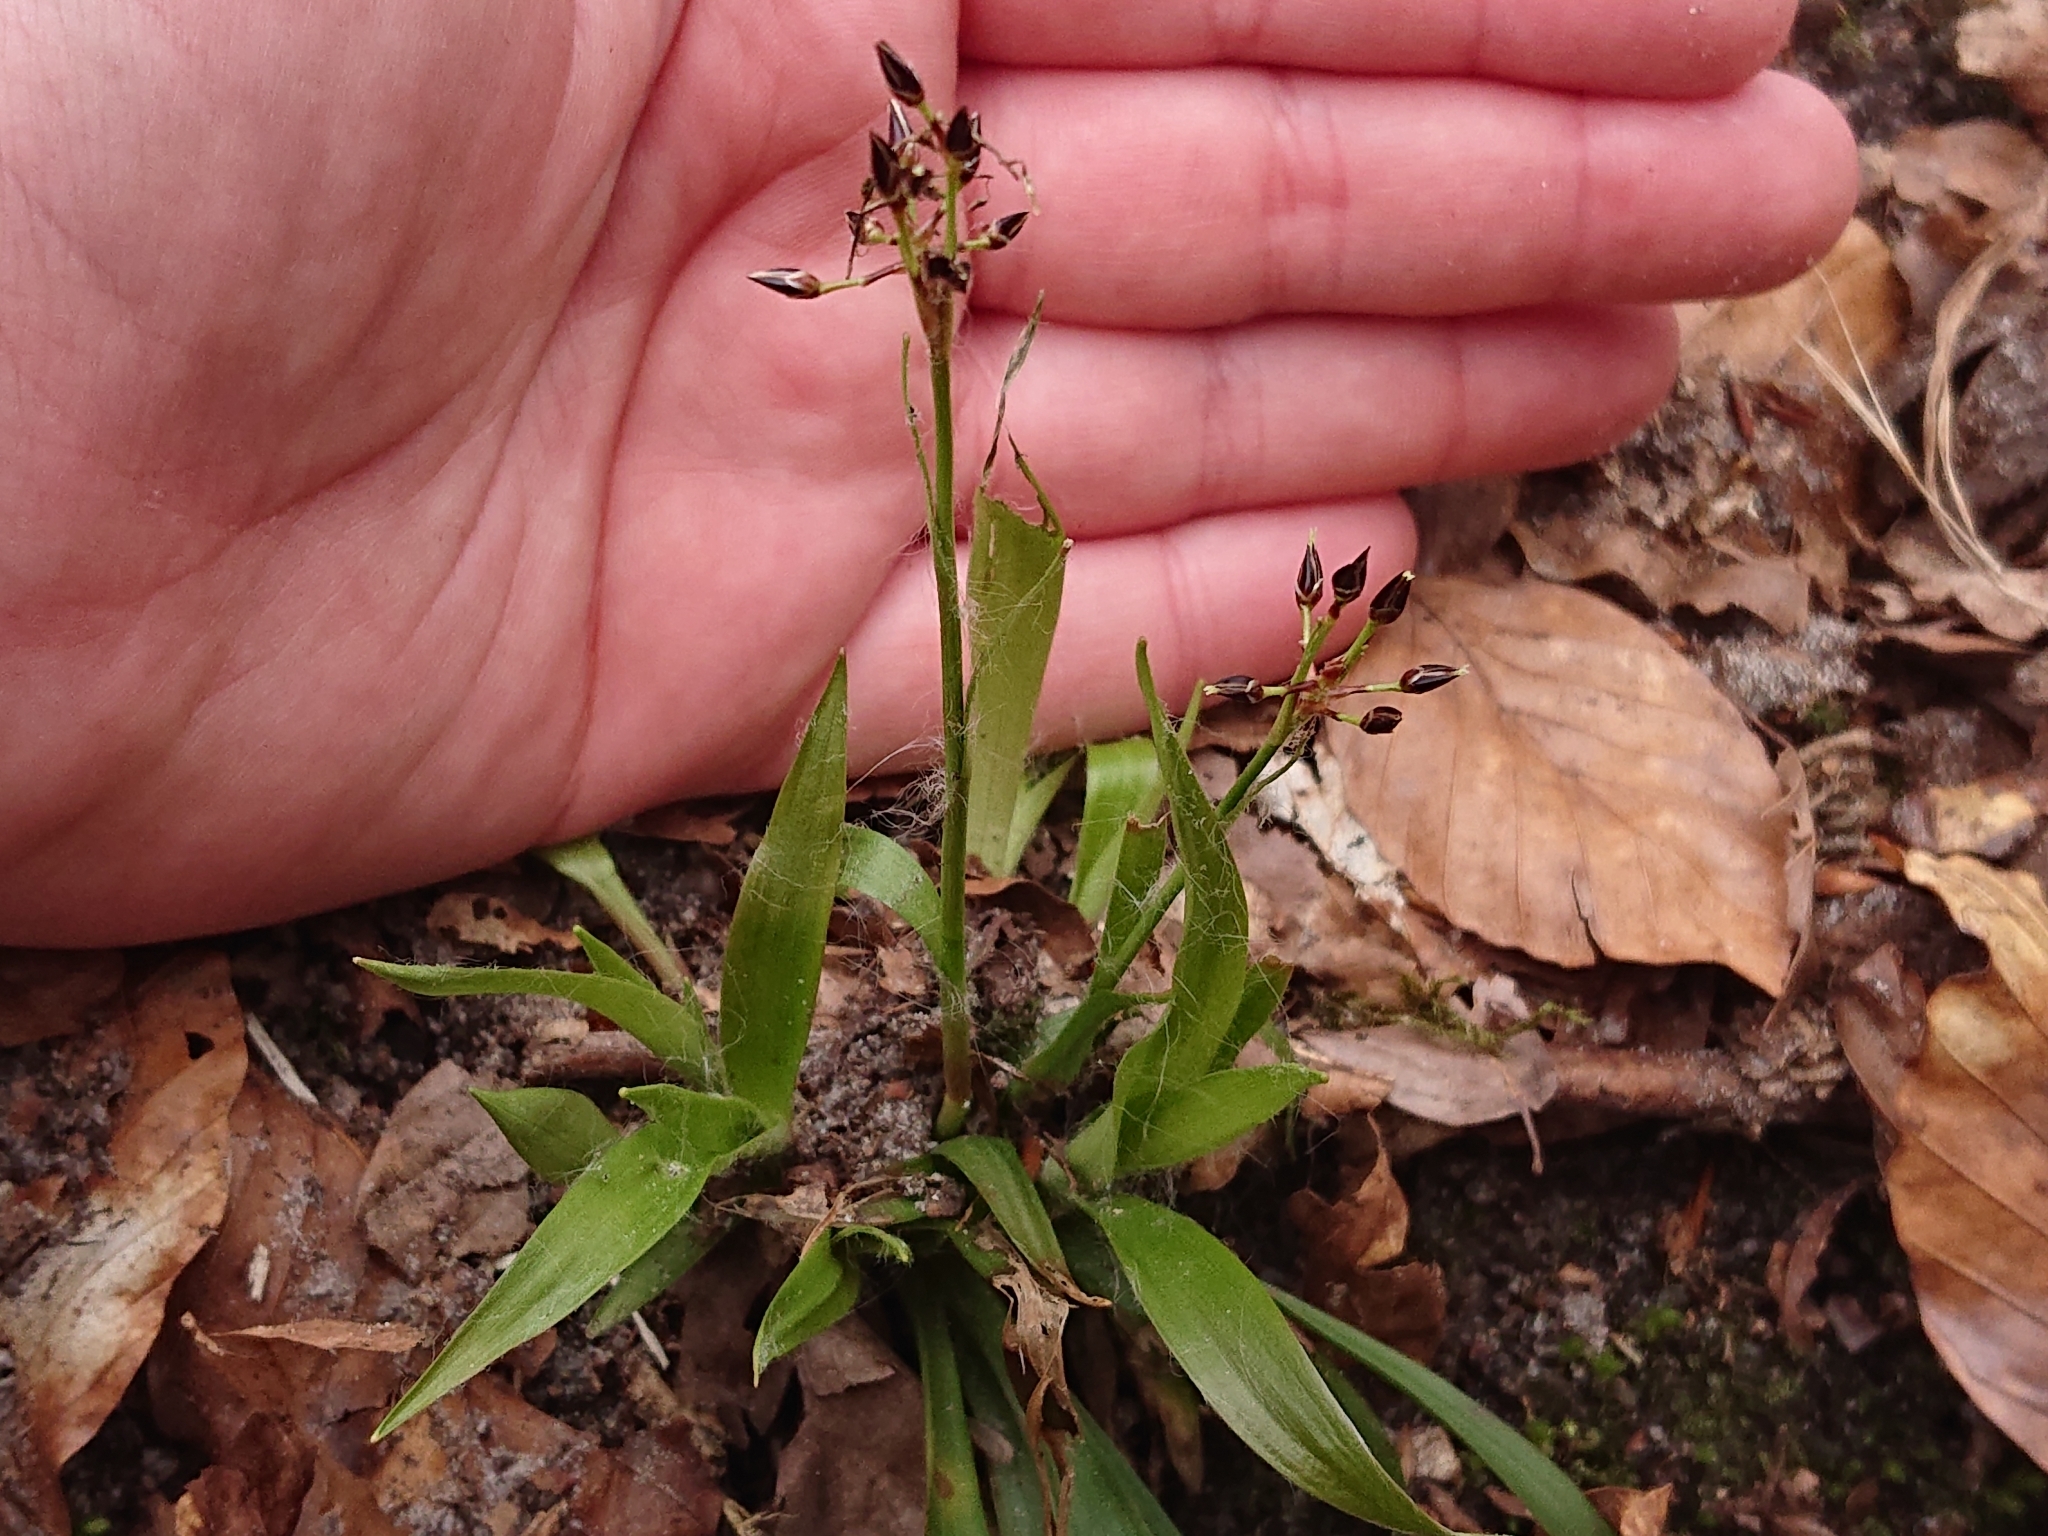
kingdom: Plantae
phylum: Tracheophyta
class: Liliopsida
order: Poales
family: Juncaceae
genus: Luzula
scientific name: Luzula pilosa
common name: Hairy wood-rush
